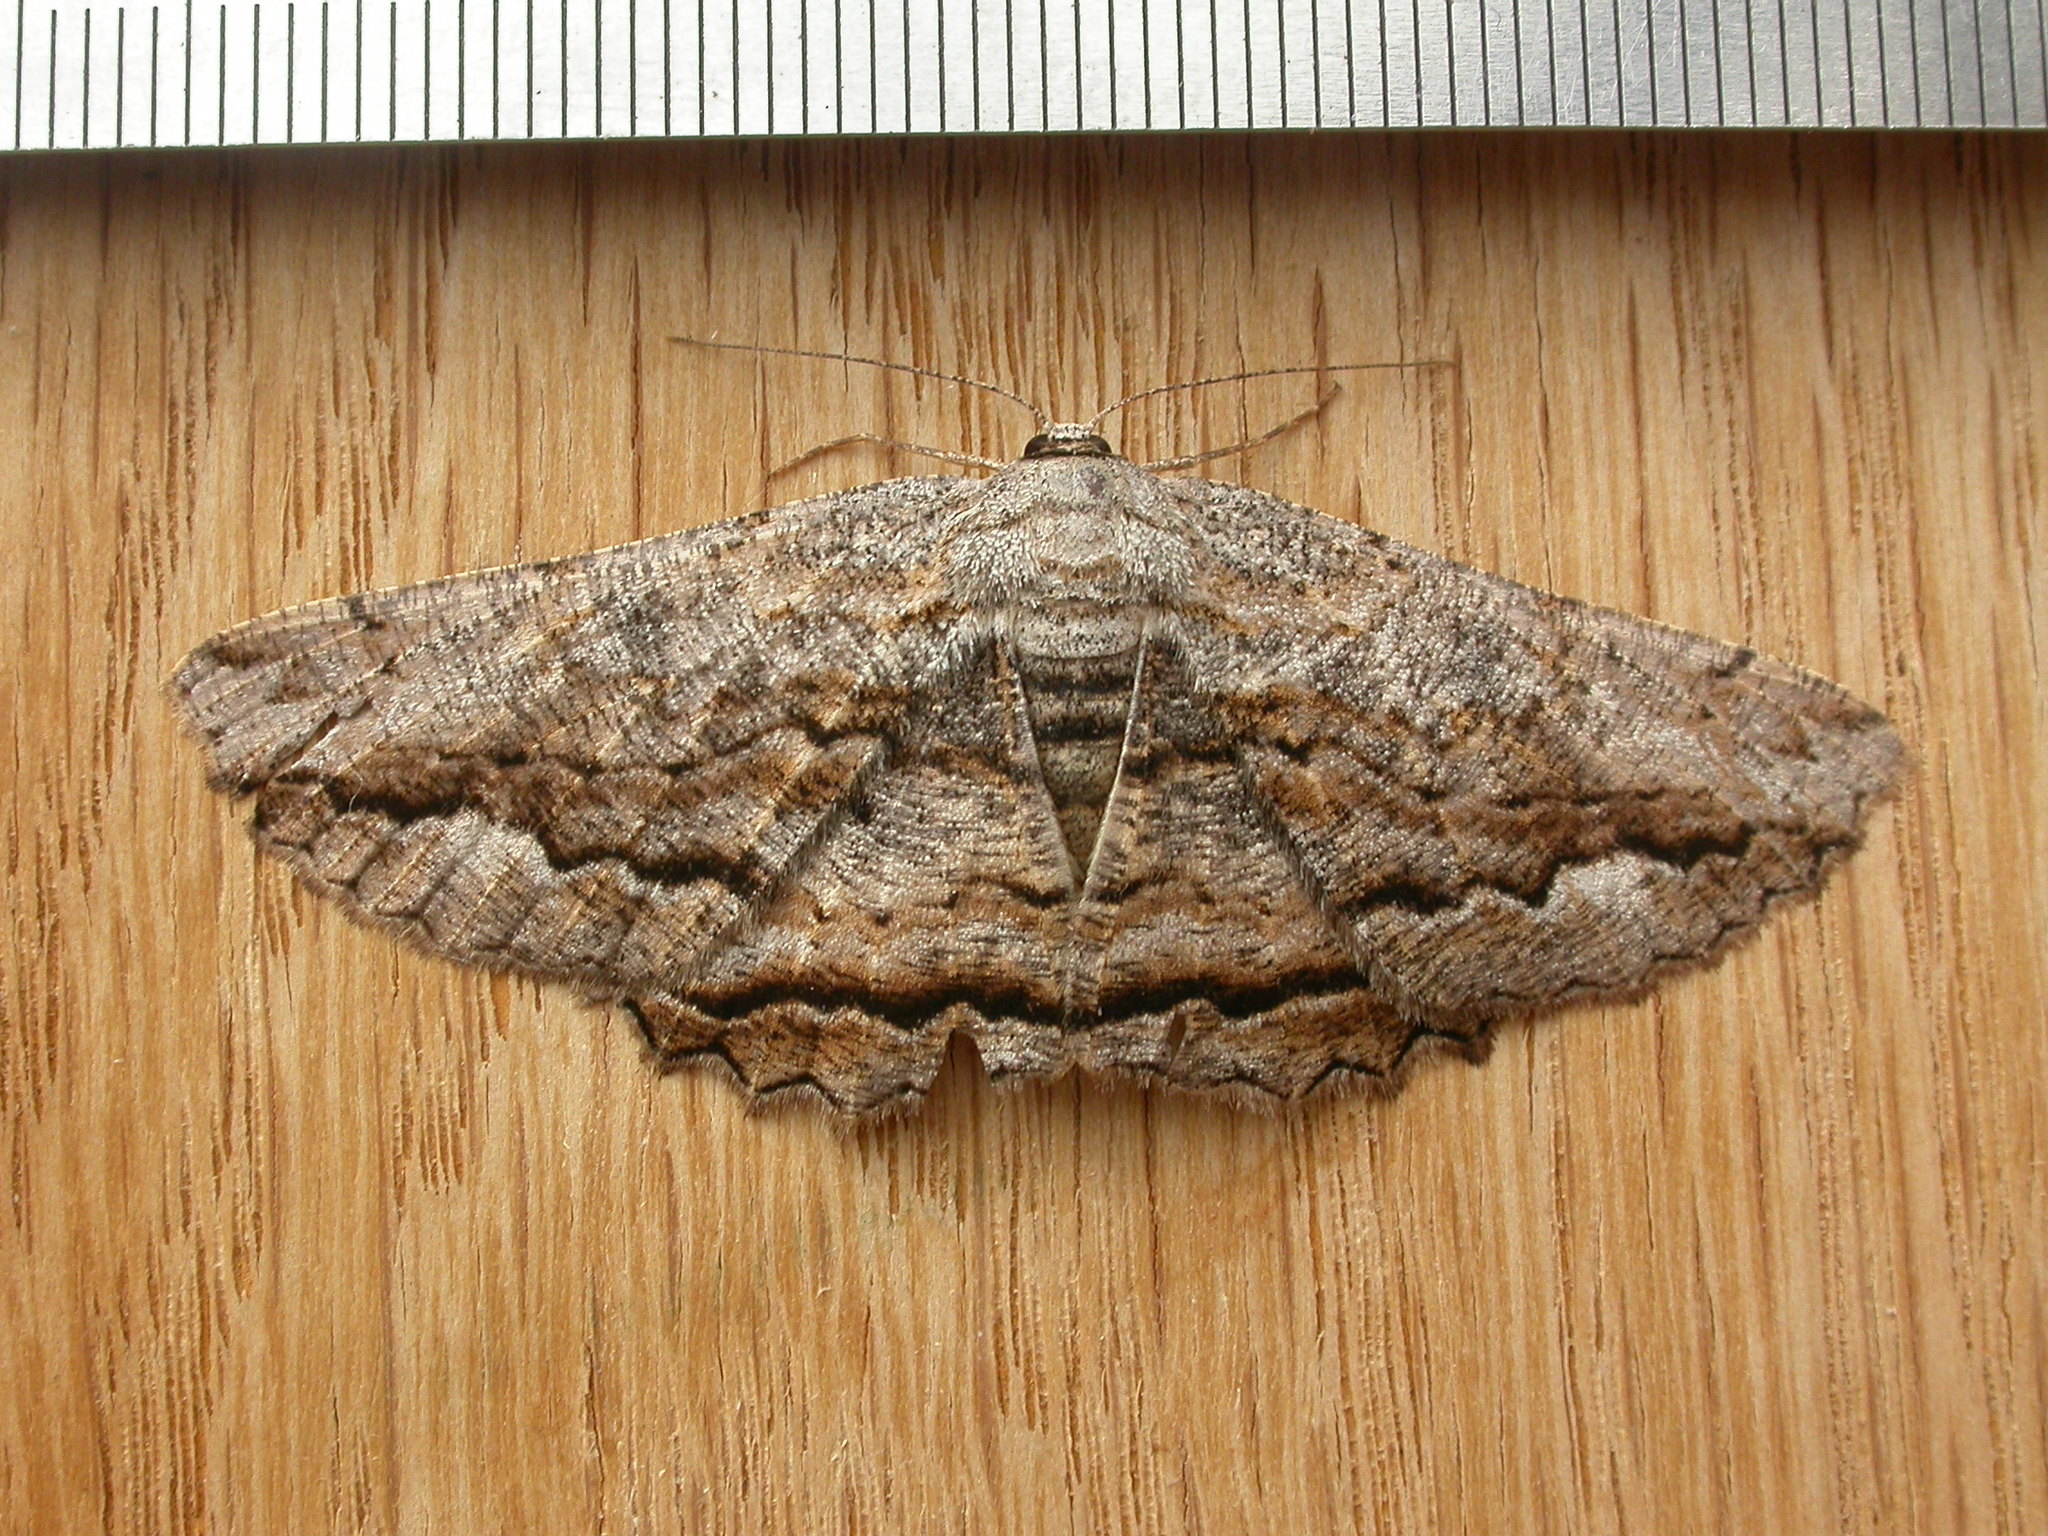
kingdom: Animalia
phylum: Arthropoda
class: Insecta
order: Lepidoptera
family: Geometridae
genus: Scioglyptis
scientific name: Scioglyptis lyciaria
